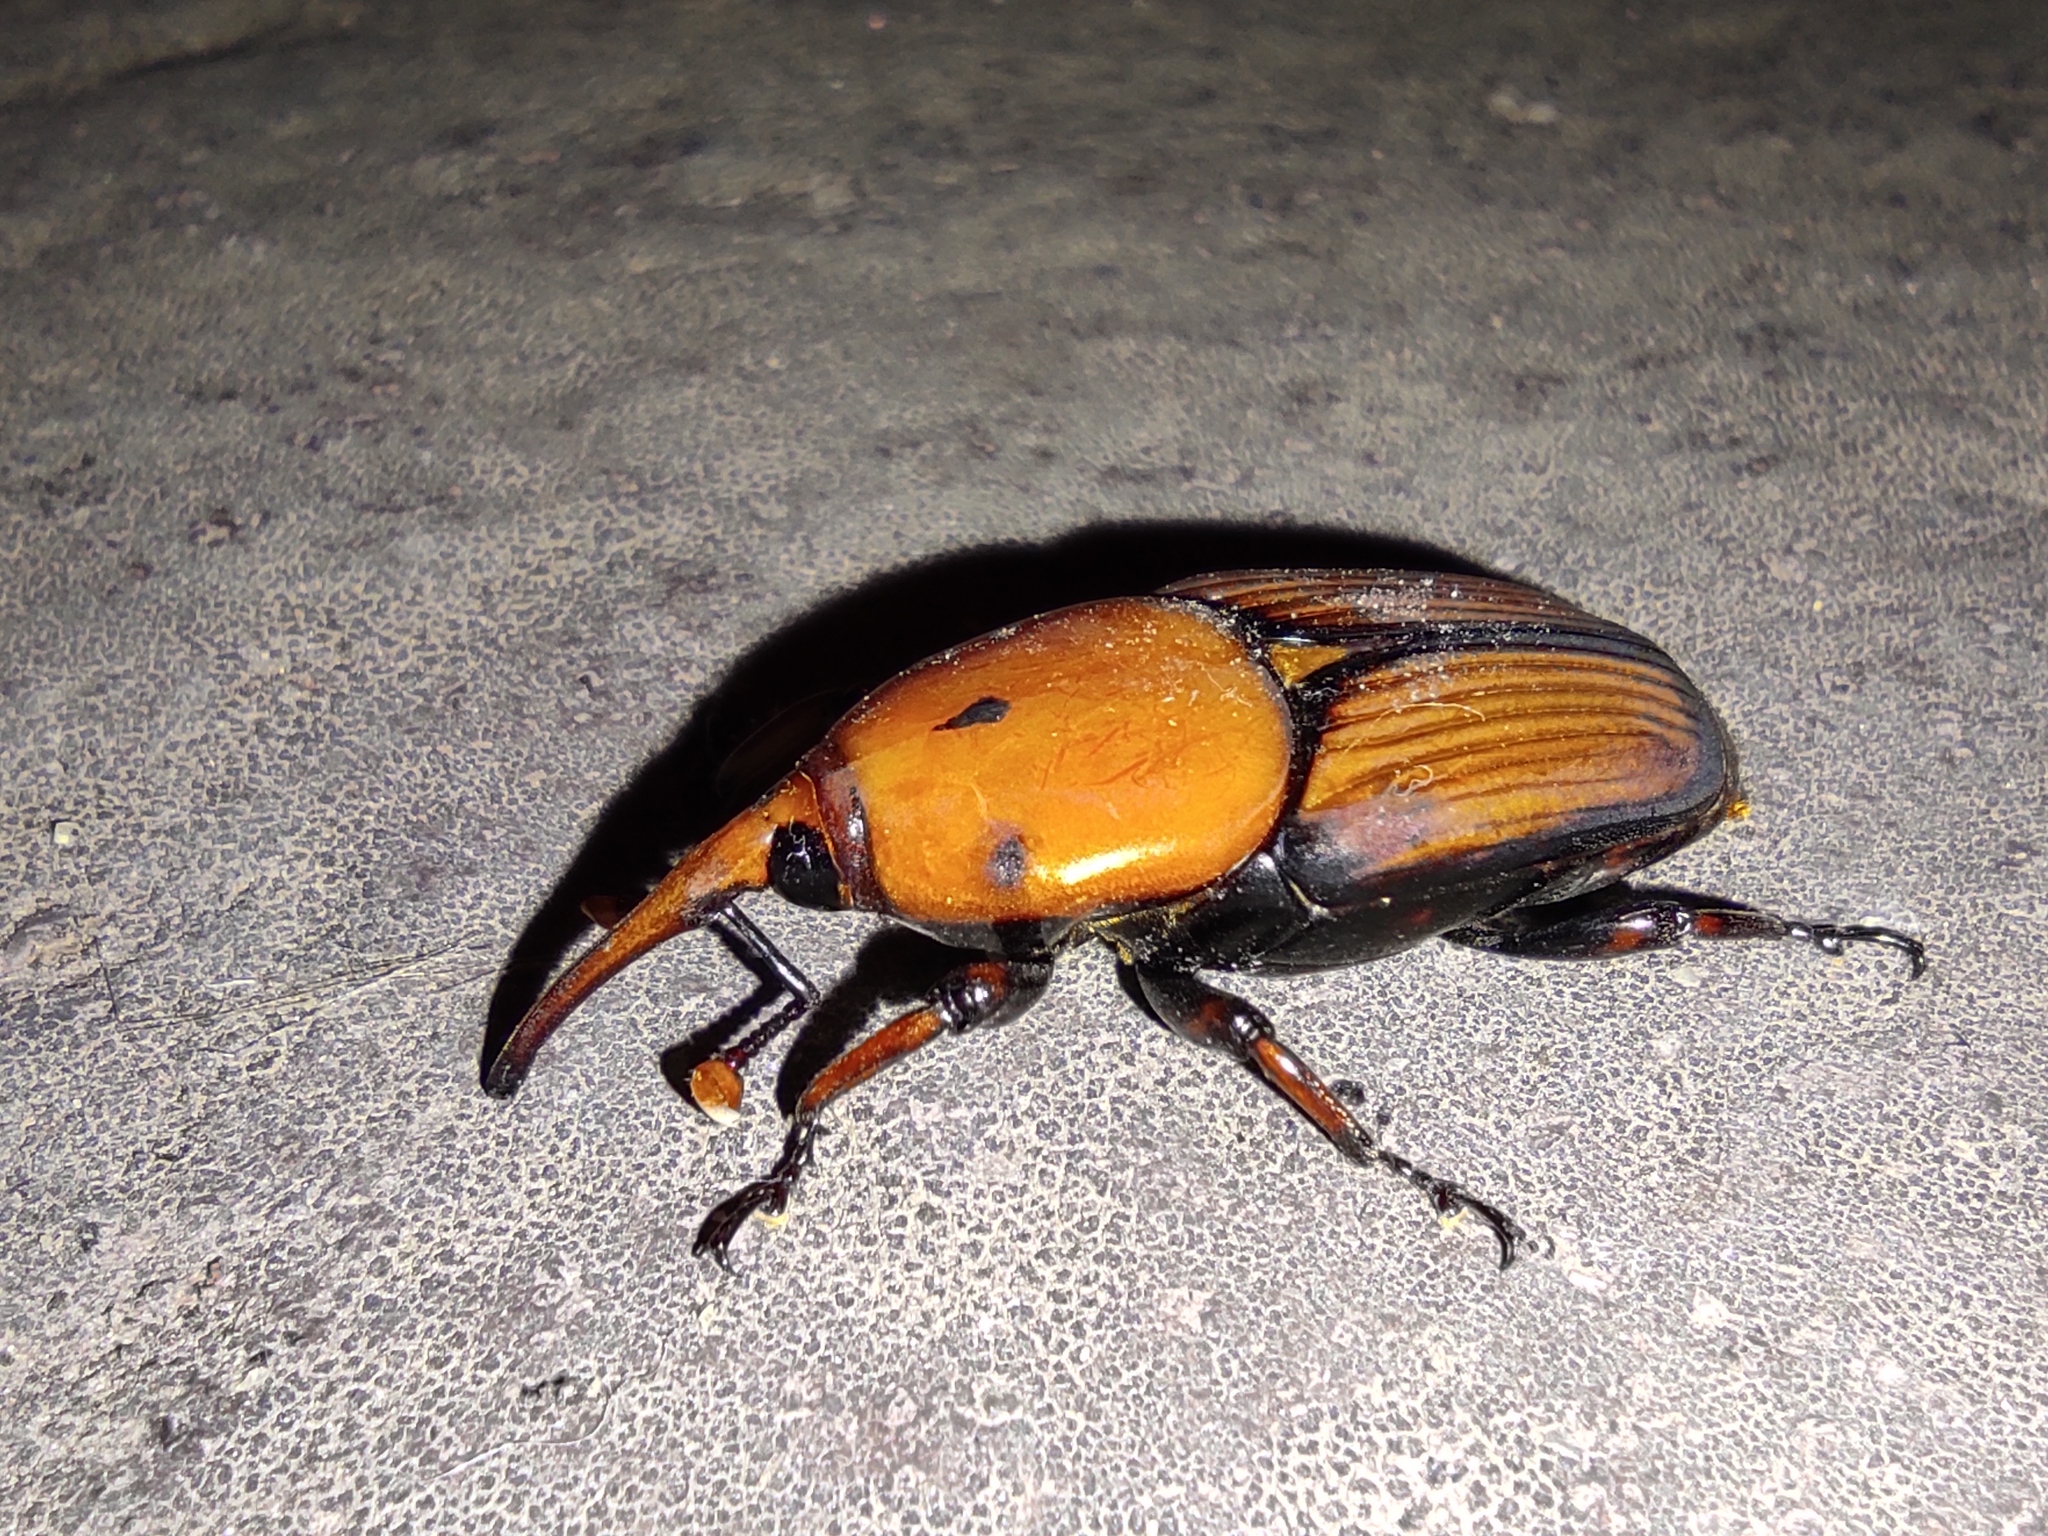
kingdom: Animalia
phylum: Arthropoda
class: Insecta
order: Coleoptera
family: Dryophthoridae
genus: Rhynchophorus
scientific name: Rhynchophorus ferrugineus
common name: Red palm weevil
